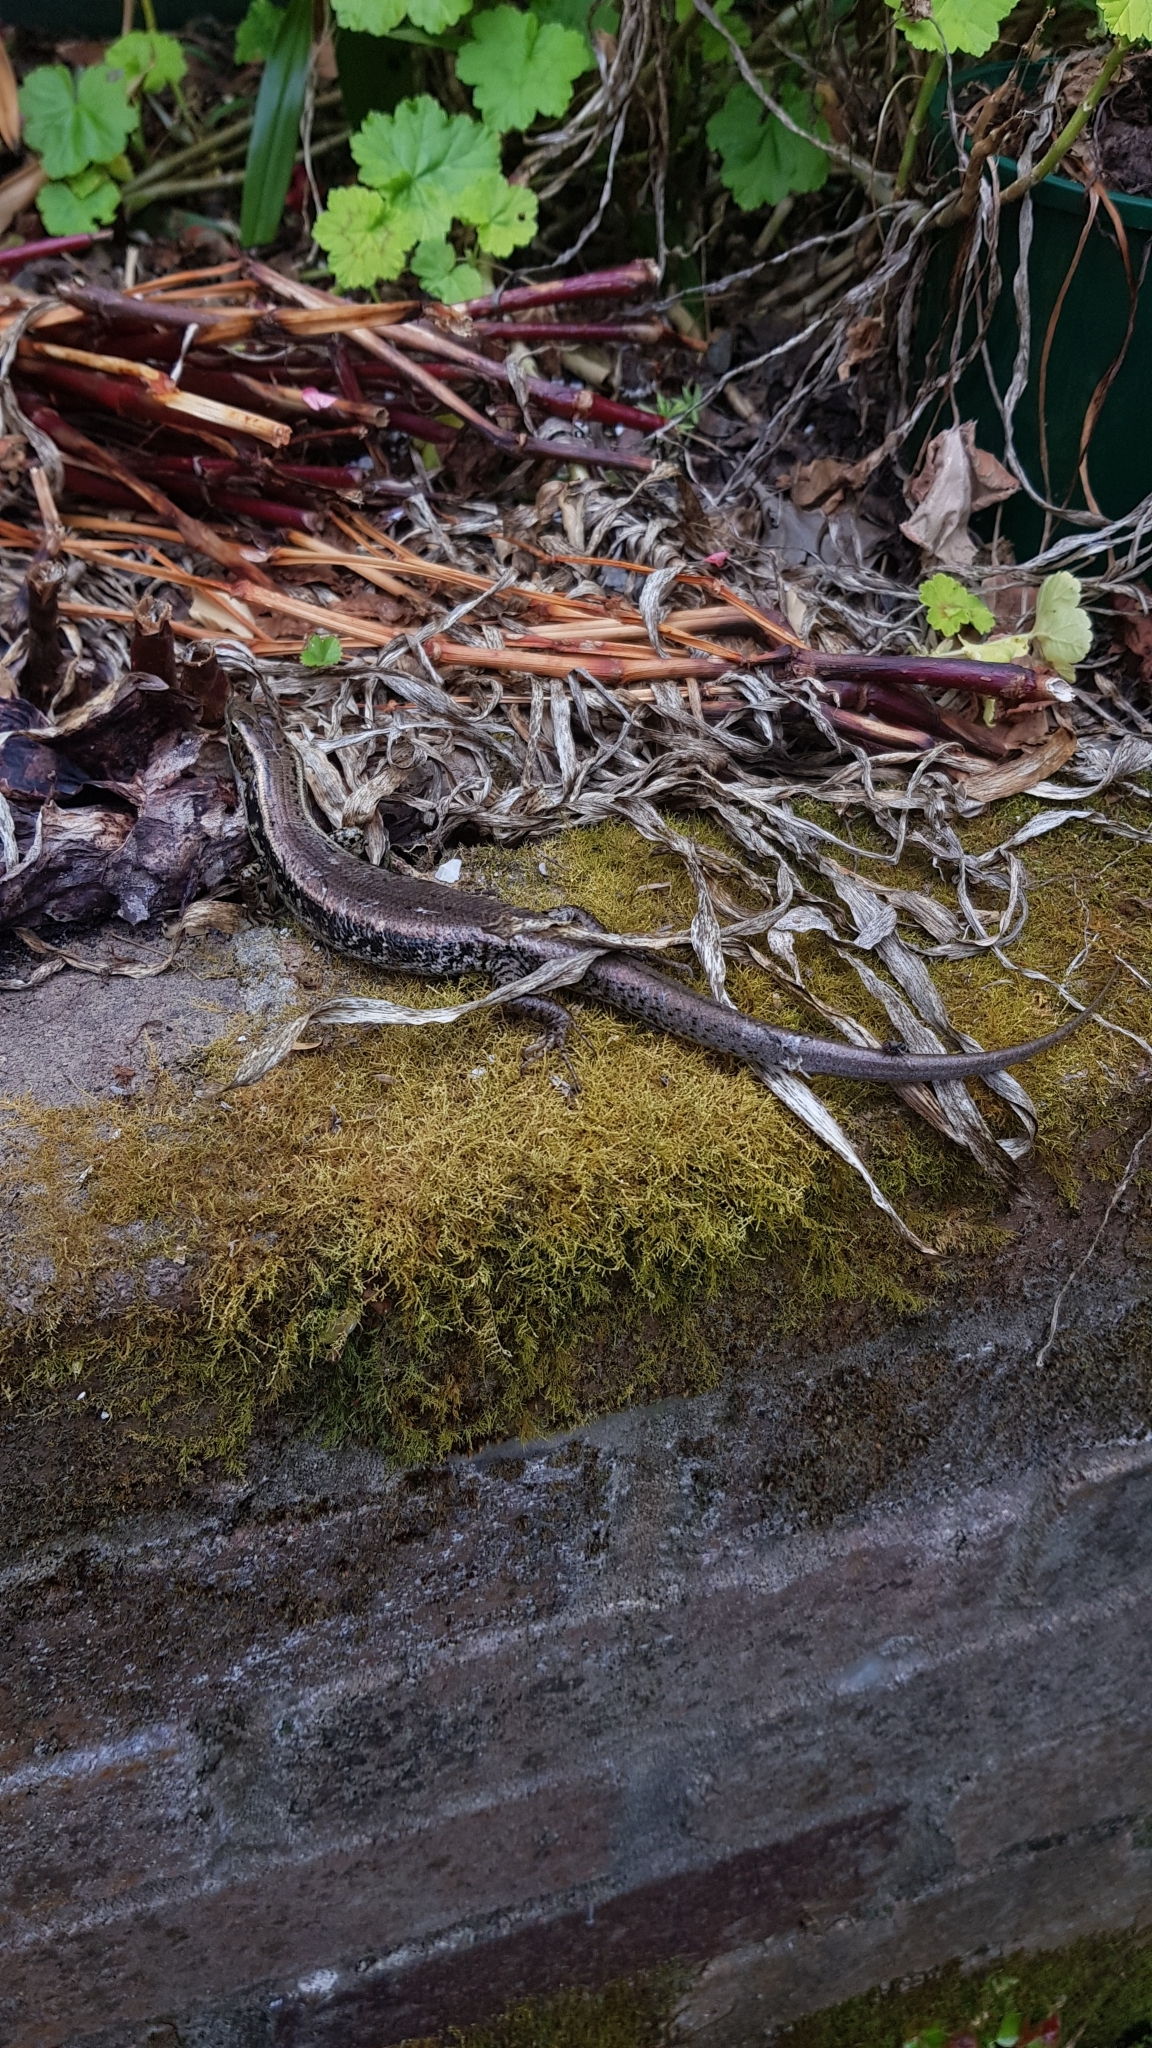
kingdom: Animalia
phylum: Chordata
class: Squamata
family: Scincidae
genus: Eulamprus
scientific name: Eulamprus quoyii
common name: Eastern water skink
